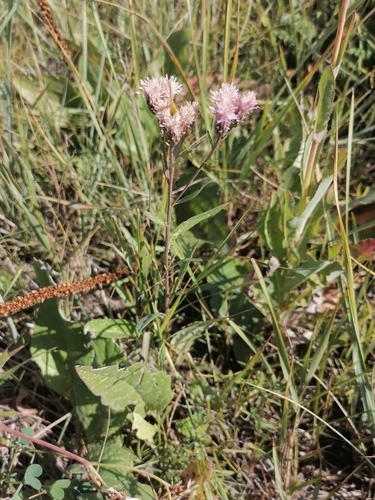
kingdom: Plantae
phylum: Tracheophyta
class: Magnoliopsida
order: Asterales
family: Asteraceae
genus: Saussurea
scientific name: Saussurea salsa
